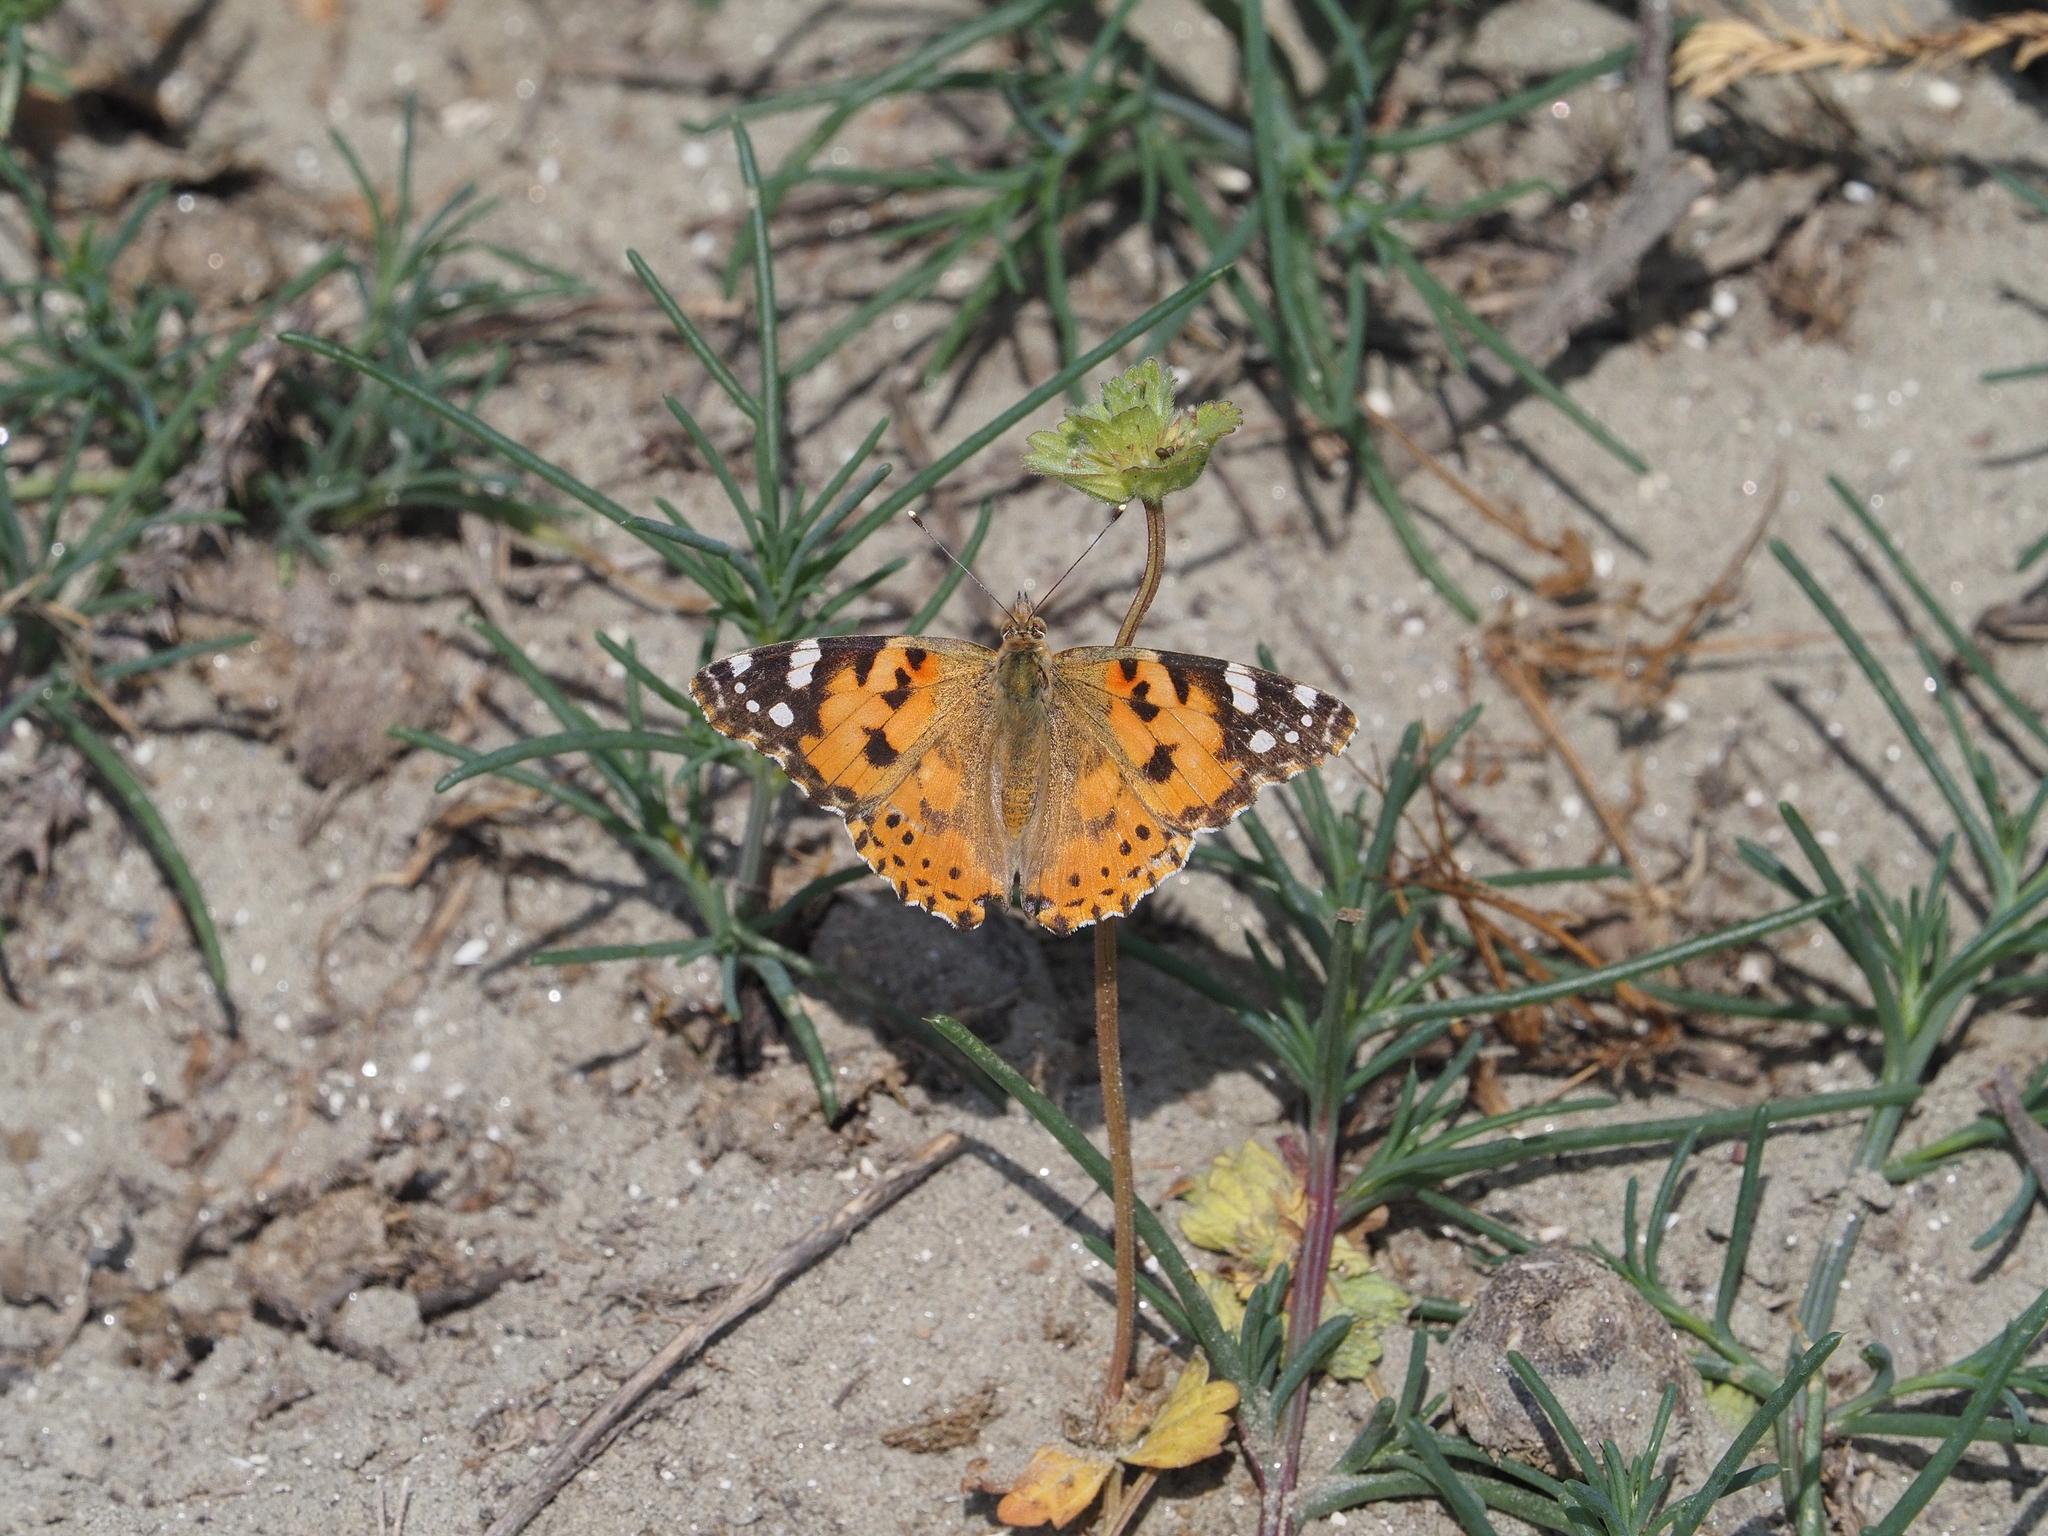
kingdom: Animalia
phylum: Arthropoda
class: Insecta
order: Lepidoptera
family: Nymphalidae
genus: Vanessa
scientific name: Vanessa cardui
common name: Painted lady
